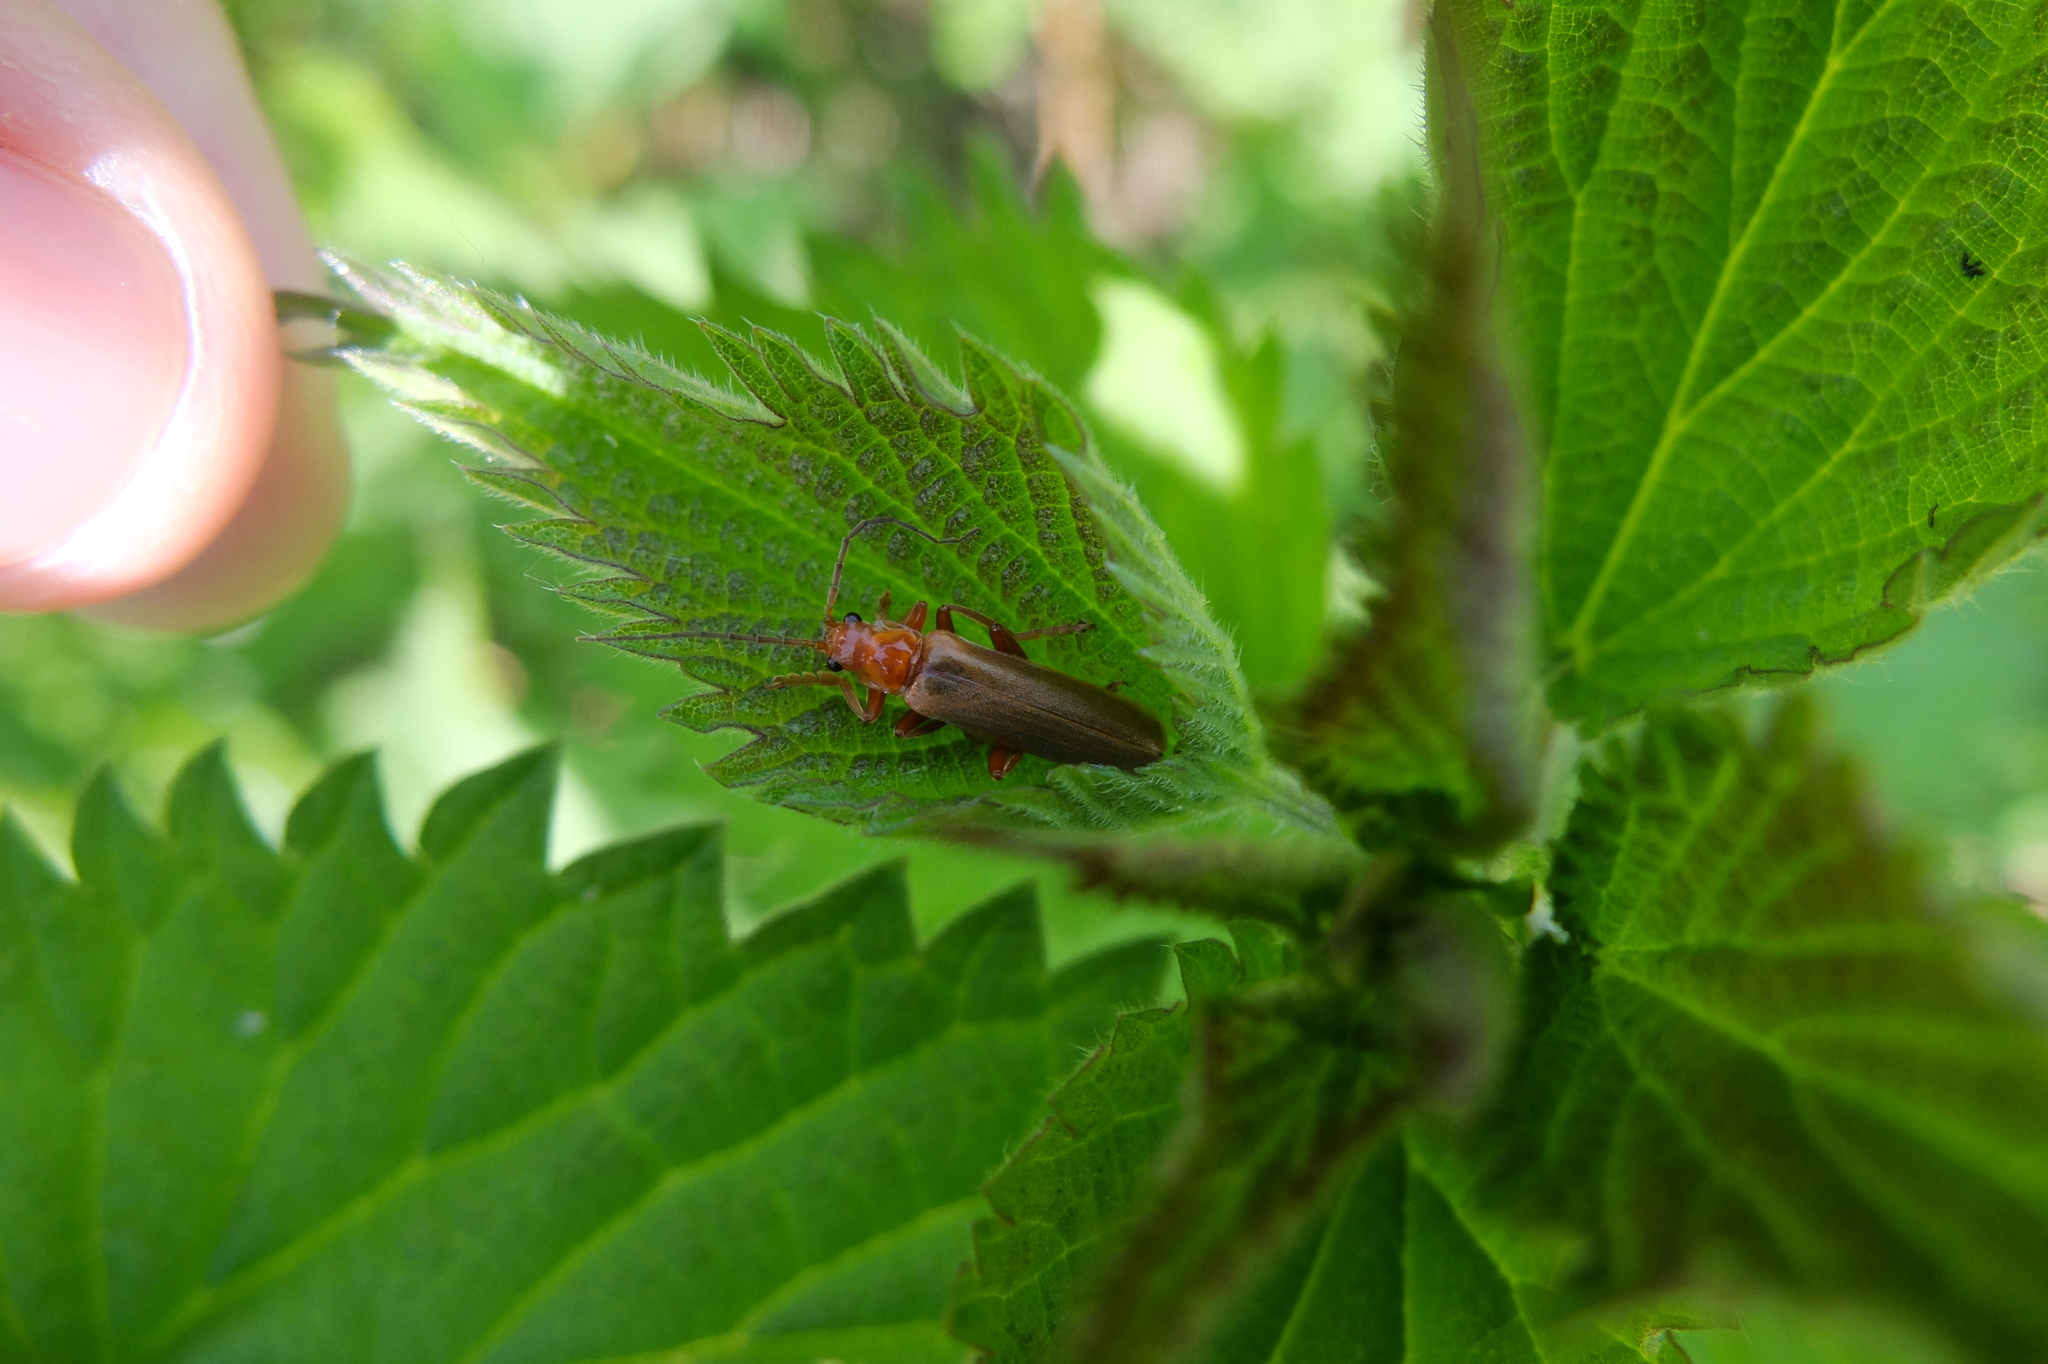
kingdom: Animalia
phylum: Arthropoda
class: Insecta
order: Coleoptera
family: Cantharidae
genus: Cantharis
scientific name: Cantharis rufa
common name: Red-spotted soldier beetle
